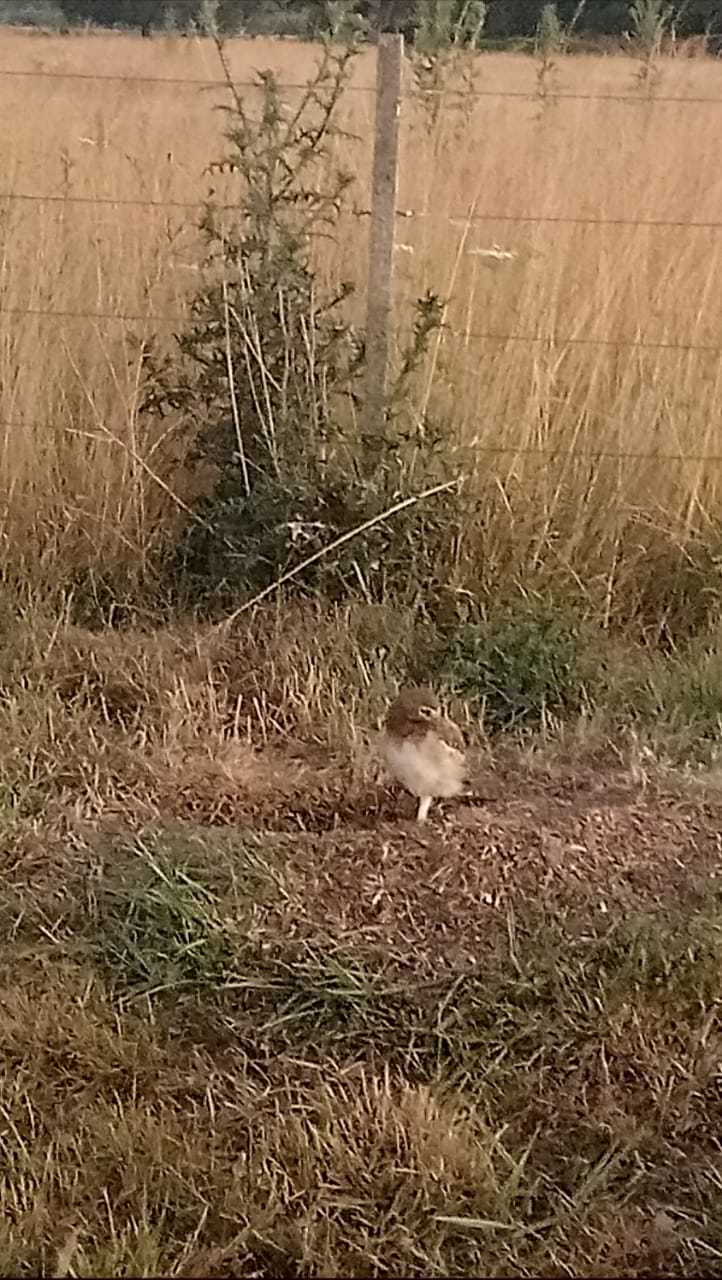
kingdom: Animalia
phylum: Chordata
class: Aves
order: Strigiformes
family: Strigidae
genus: Athene
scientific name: Athene cunicularia
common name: Burrowing owl
